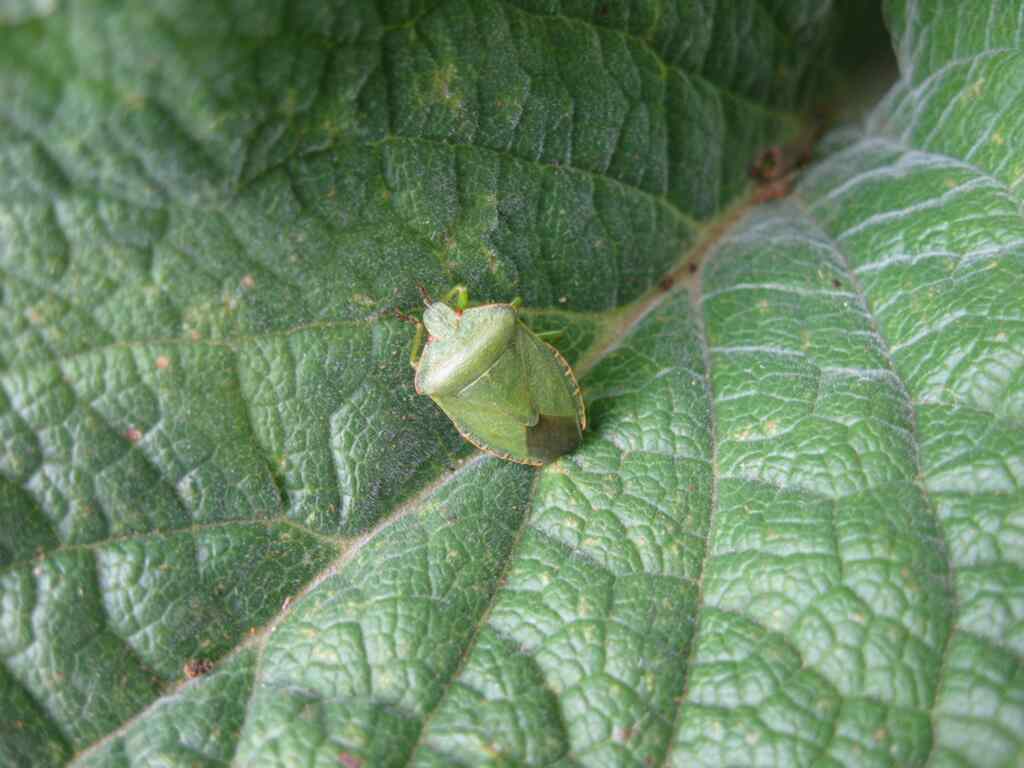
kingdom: Animalia
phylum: Arthropoda
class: Insecta
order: Hemiptera
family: Pentatomidae
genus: Palomena
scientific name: Palomena prasina
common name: Green shieldbug
